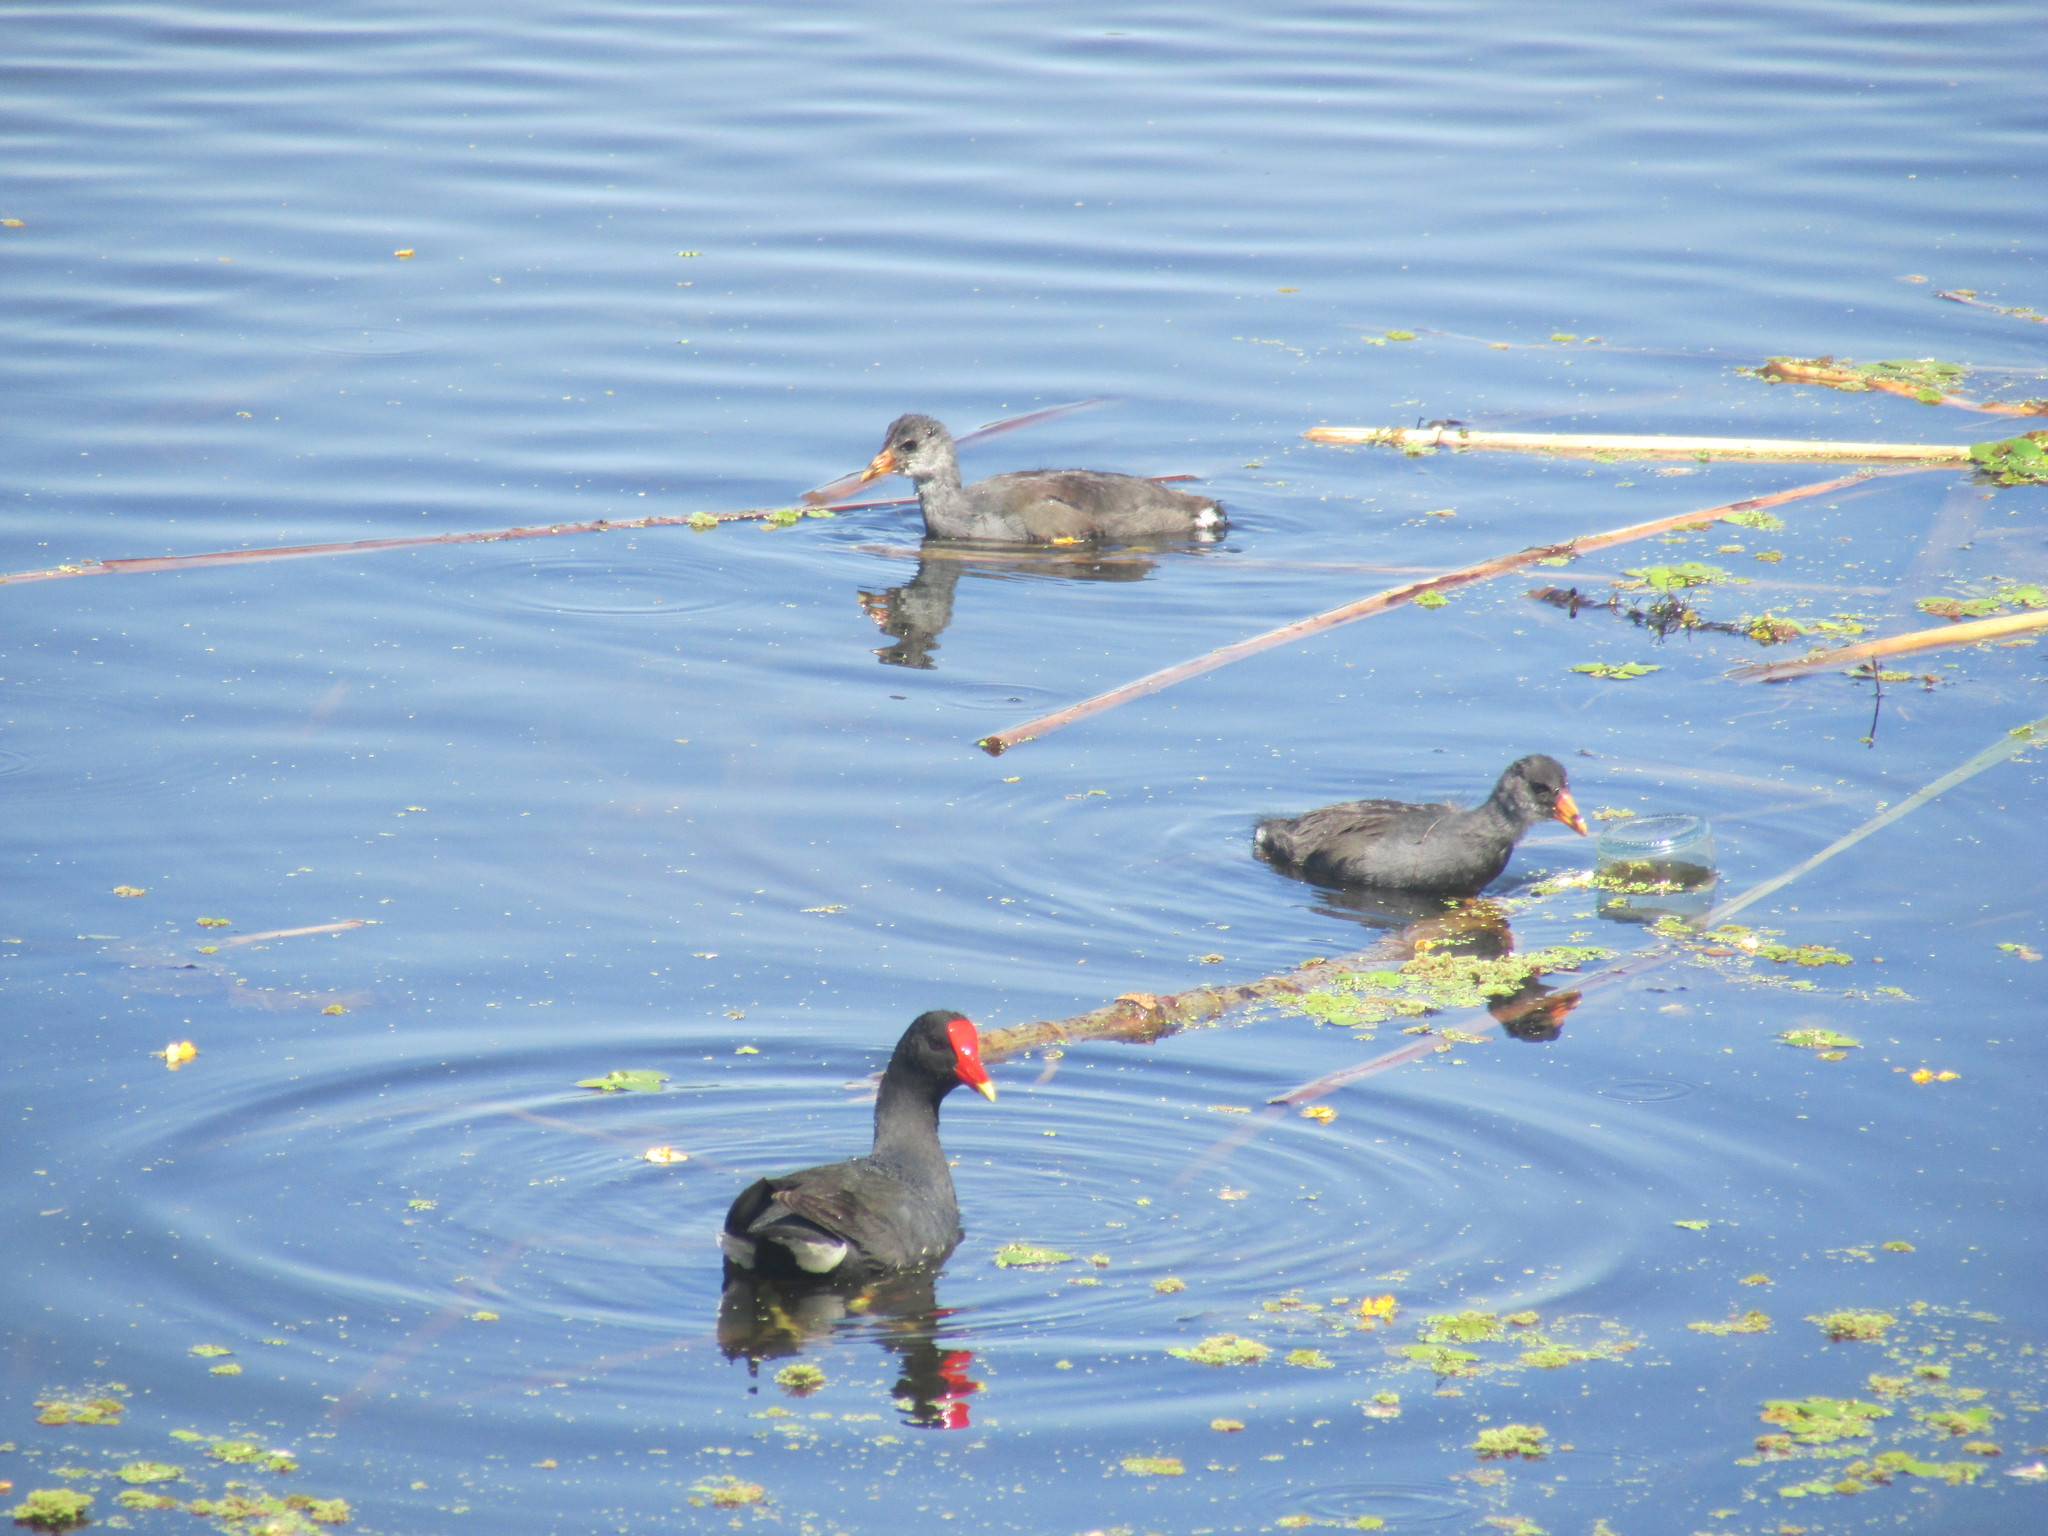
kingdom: Animalia
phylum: Chordata
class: Aves
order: Gruiformes
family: Rallidae
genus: Gallinula
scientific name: Gallinula chloropus
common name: Common moorhen
